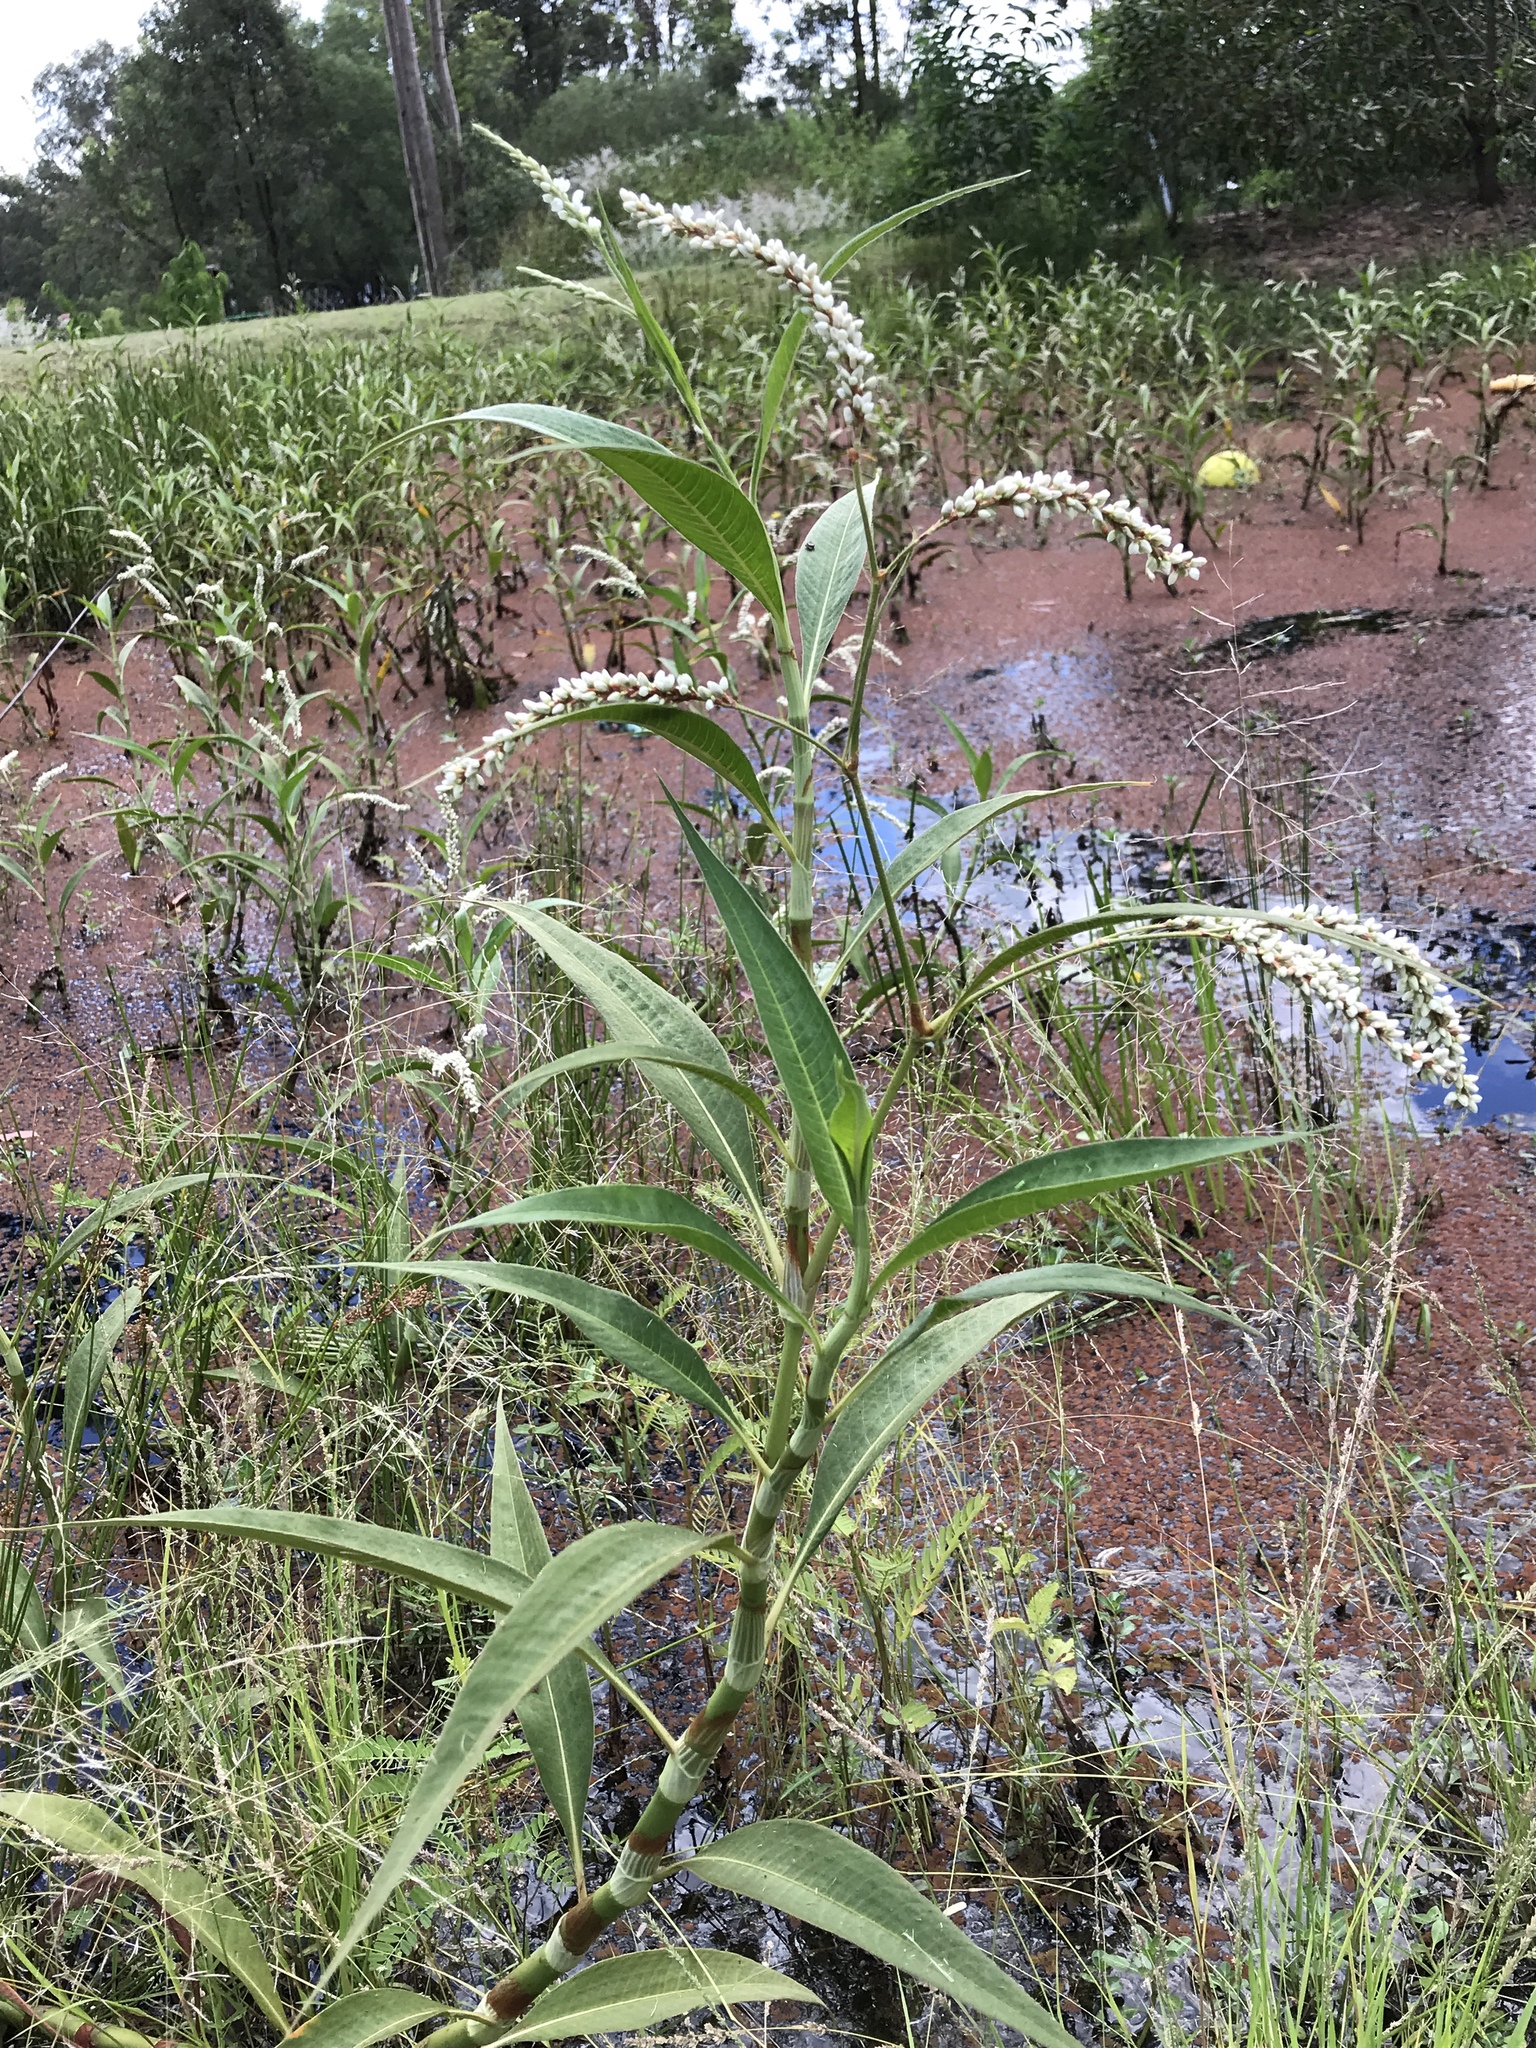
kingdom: Plantae
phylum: Tracheophyta
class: Magnoliopsida
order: Caryophyllales
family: Polygonaceae
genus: Persicaria
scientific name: Persicaria attenuata
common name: Hairy knotweed
